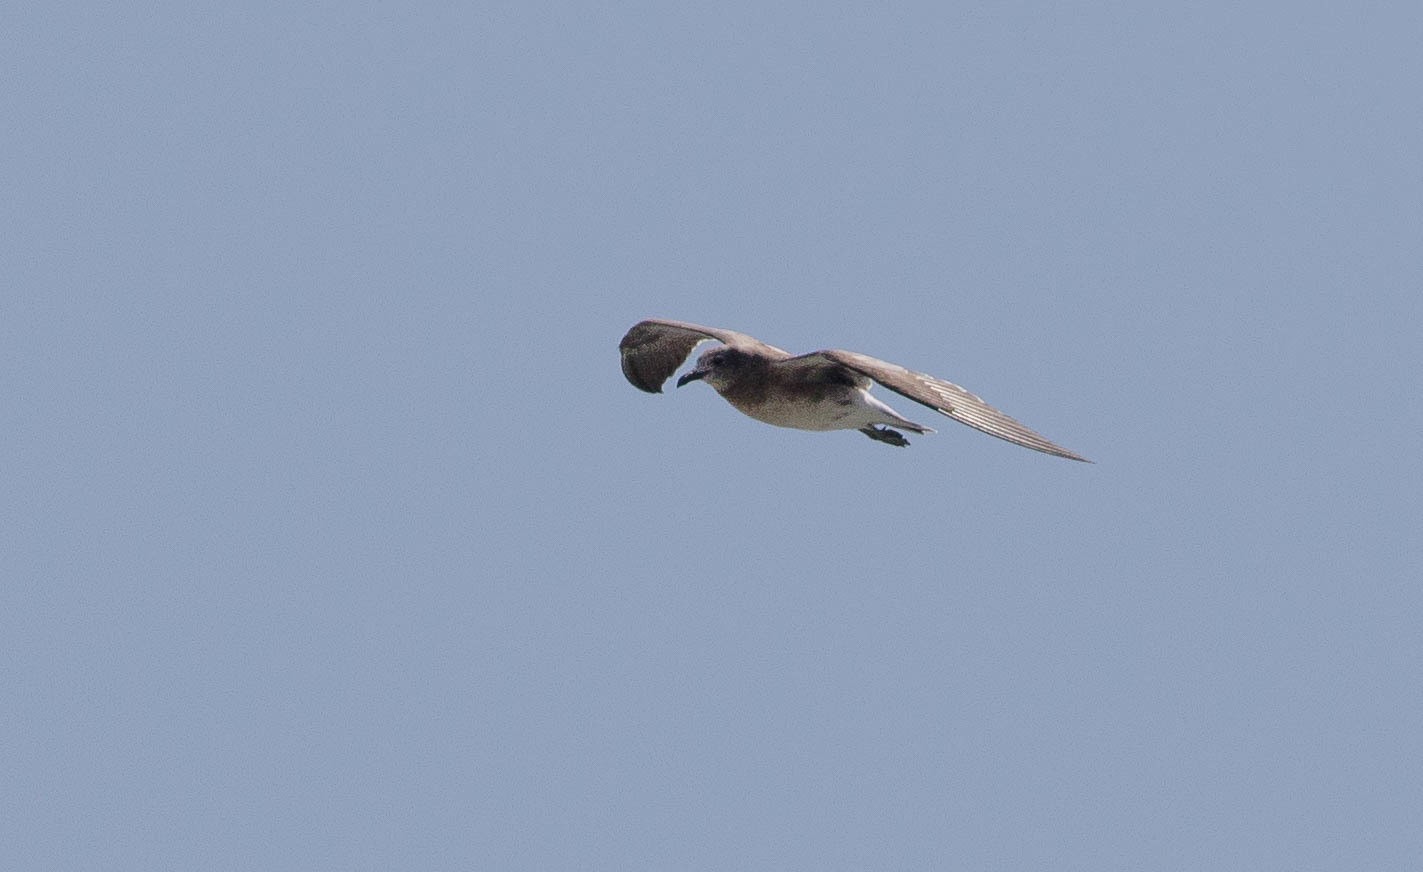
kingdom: Animalia
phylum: Chordata
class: Aves
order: Charadriiformes
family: Laridae
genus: Leucophaeus
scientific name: Leucophaeus atricilla
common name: Laughing gull
